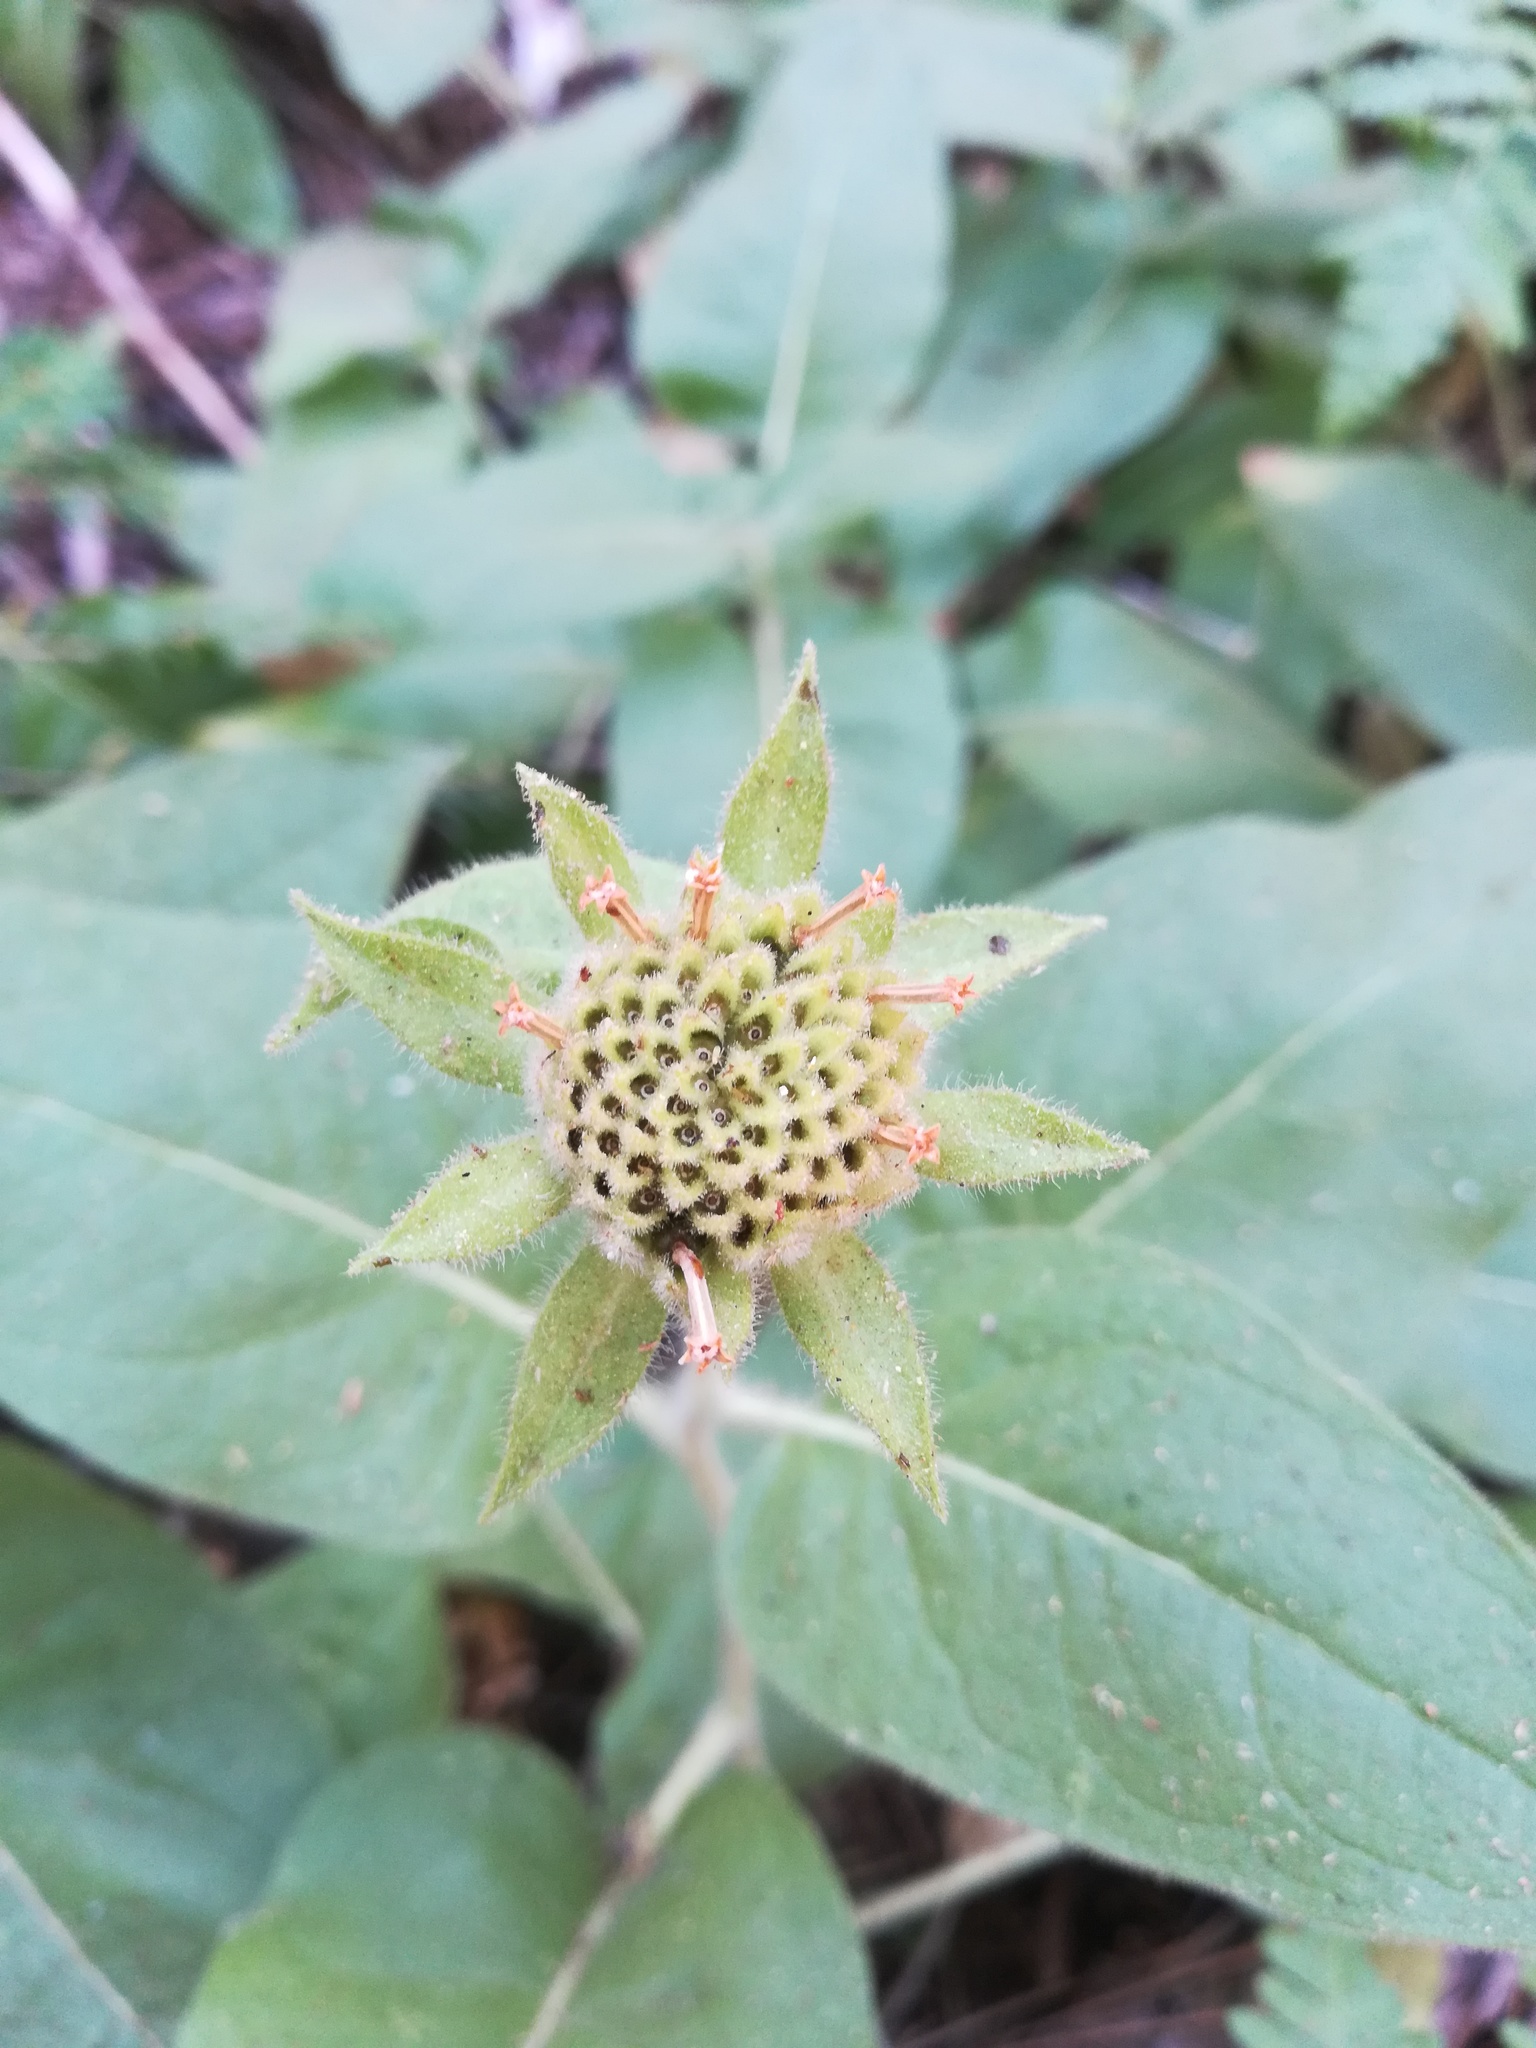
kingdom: Plantae
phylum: Tracheophyta
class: Magnoliopsida
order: Asterales
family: Asteraceae
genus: Agnorhiza
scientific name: Agnorhiza invenusta
